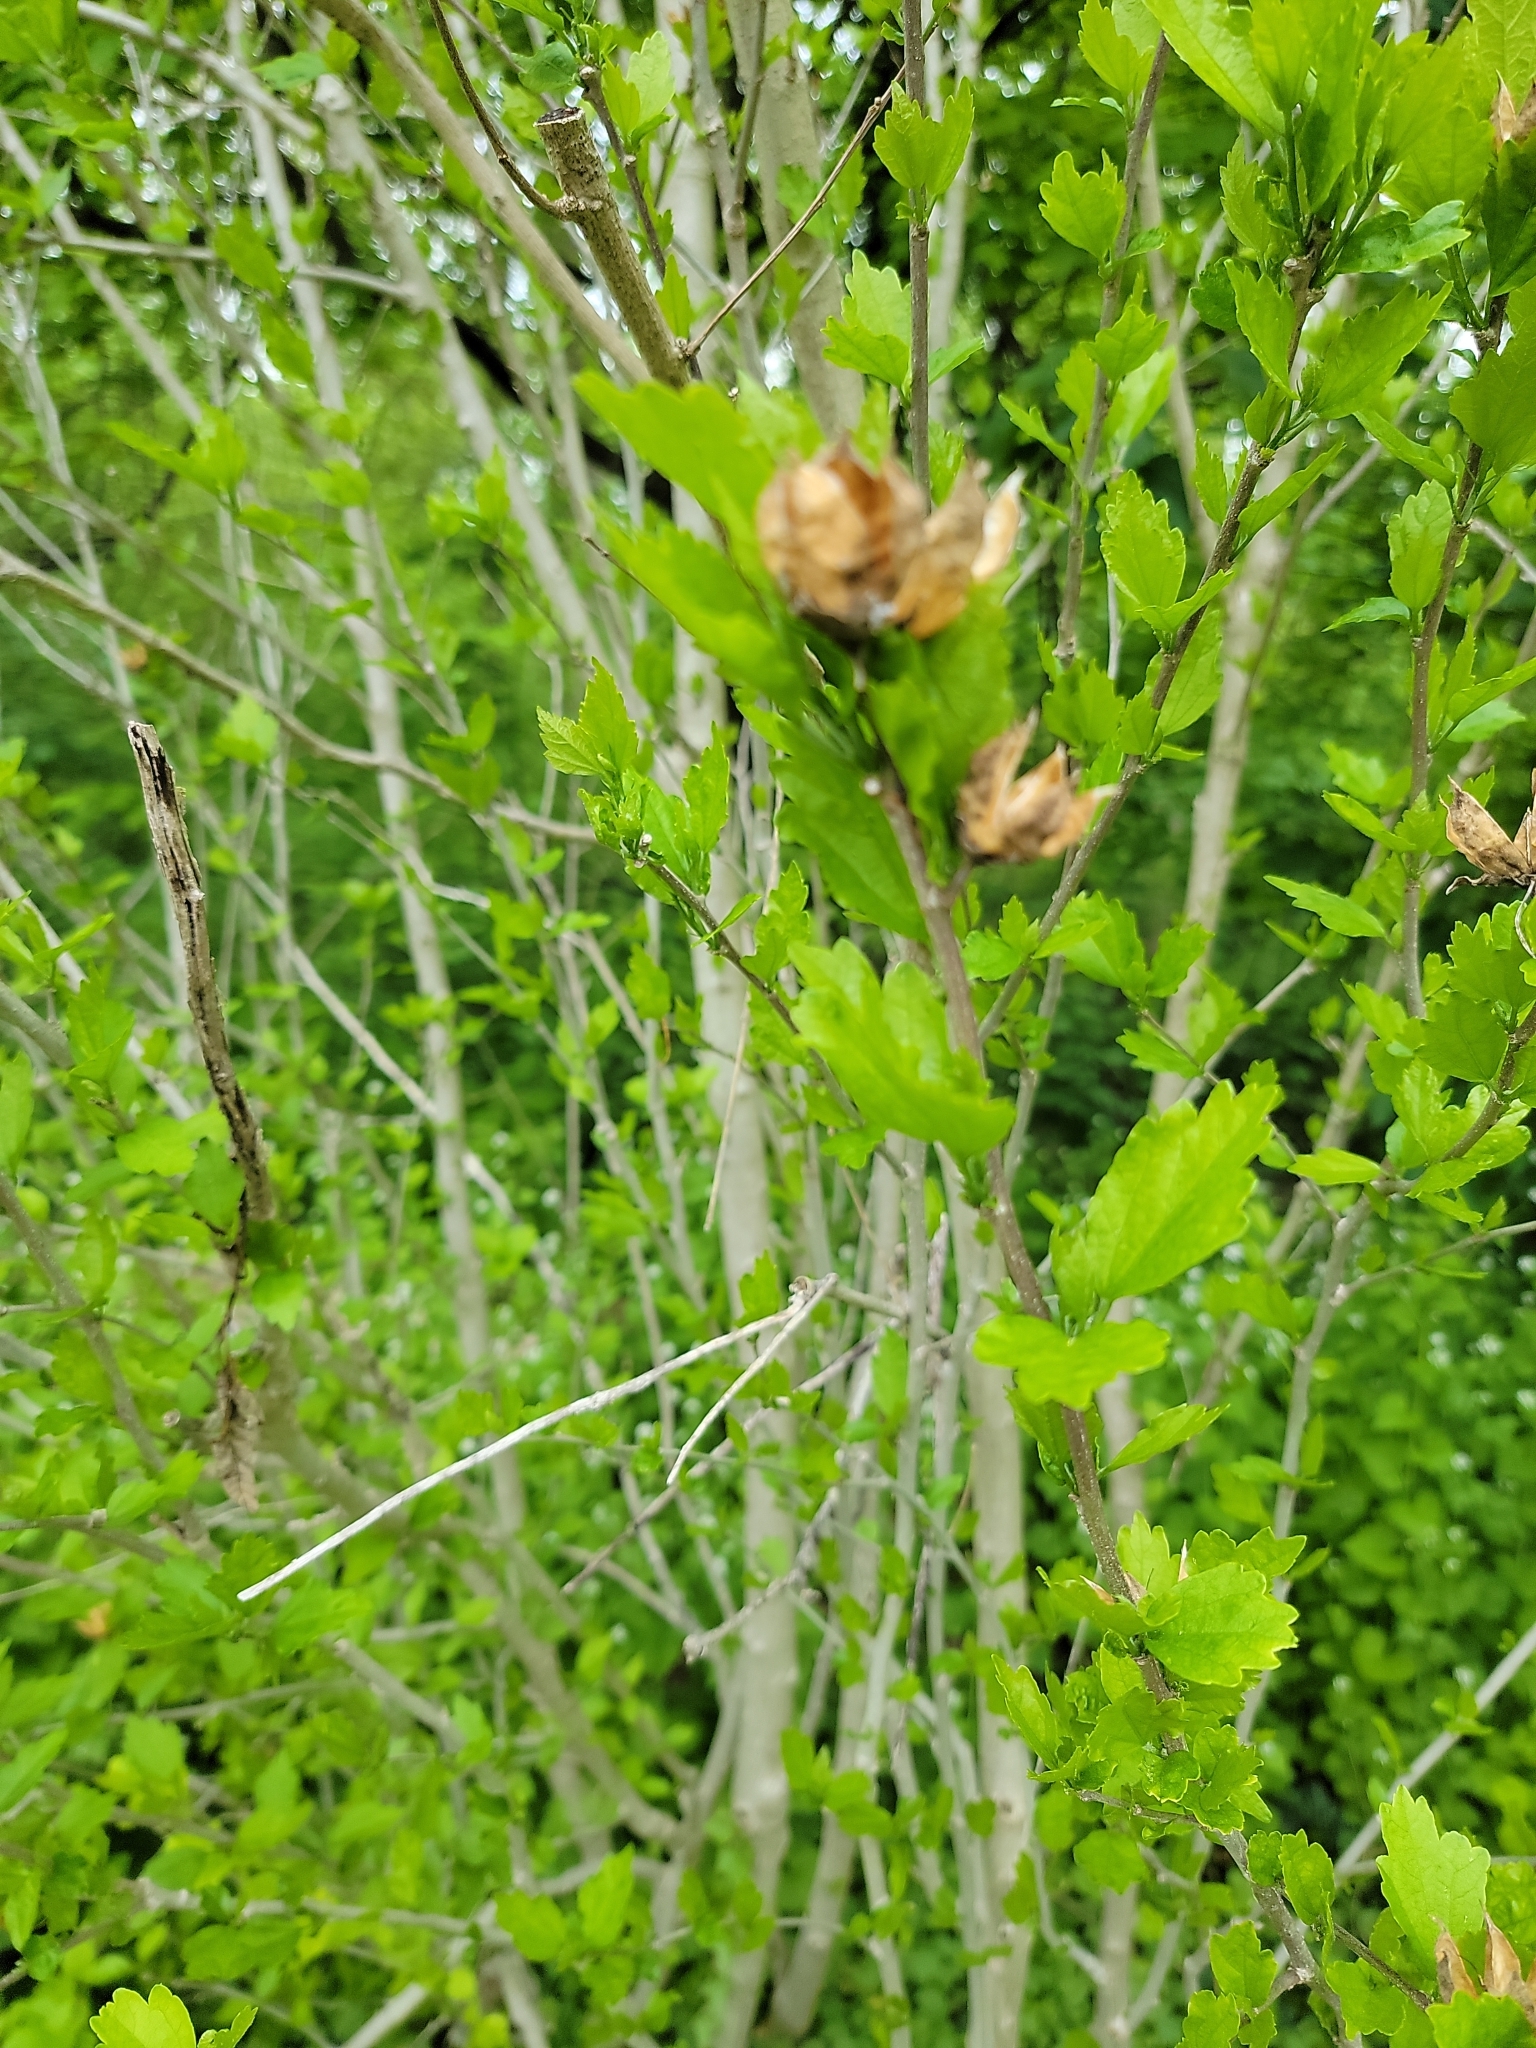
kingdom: Plantae
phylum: Tracheophyta
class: Magnoliopsida
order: Malvales
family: Malvaceae
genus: Hibiscus
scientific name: Hibiscus syriacus
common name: Syrian ketmia
